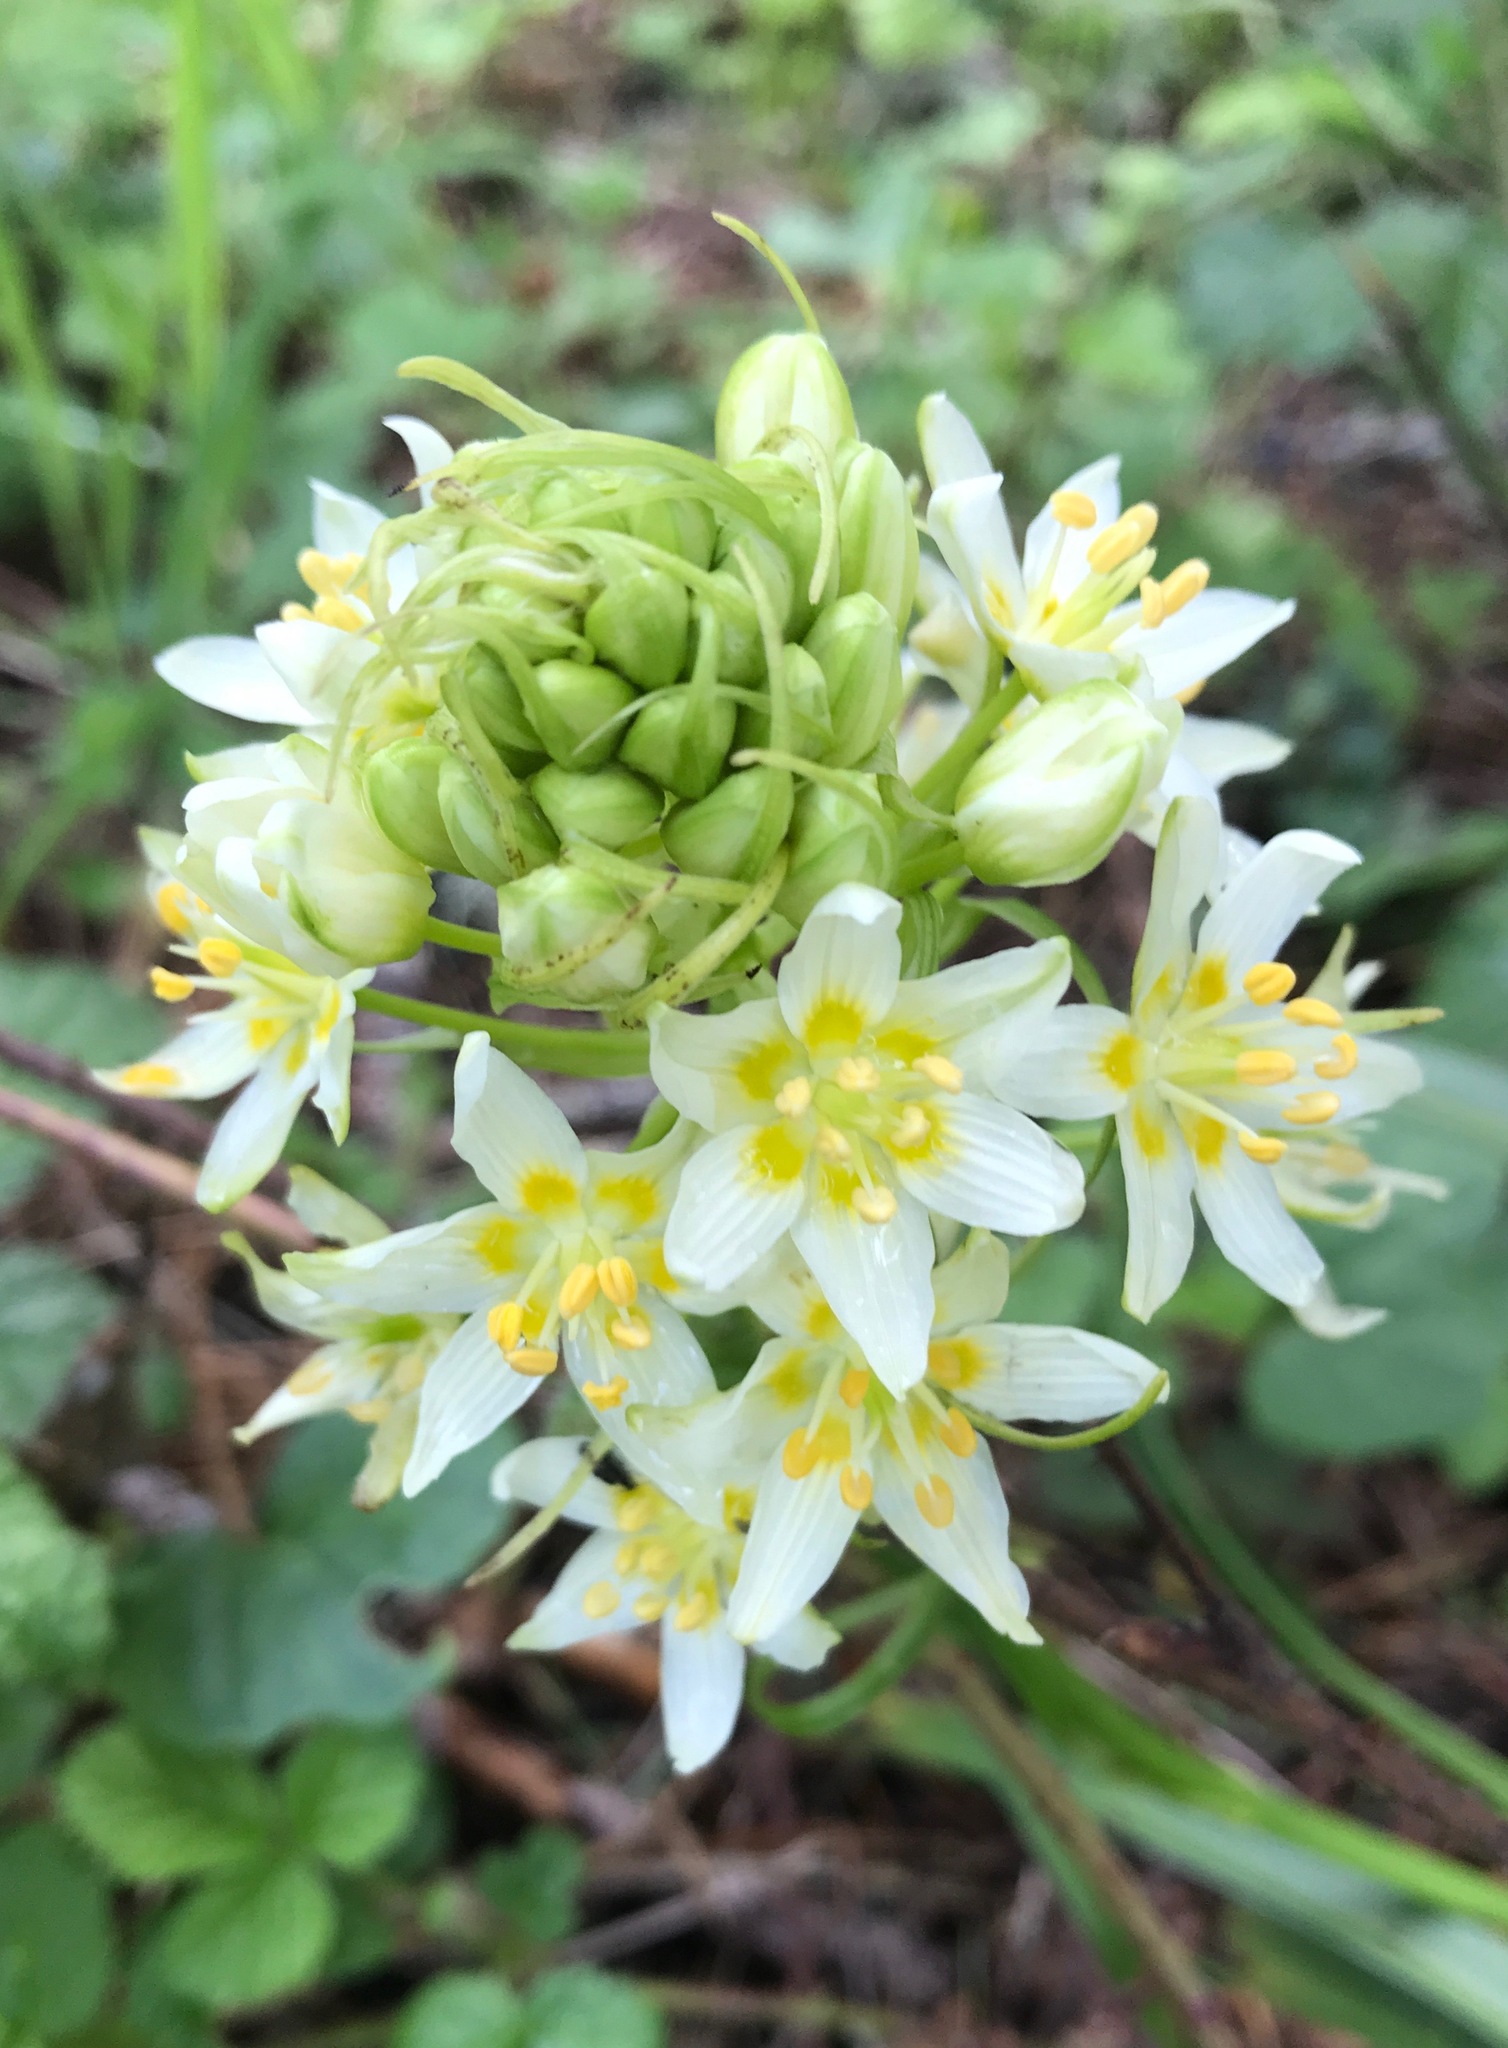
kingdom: Plantae
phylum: Tracheophyta
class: Liliopsida
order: Liliales
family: Melanthiaceae
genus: Toxicoscordion
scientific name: Toxicoscordion fremontii
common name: Fremont's death camas
